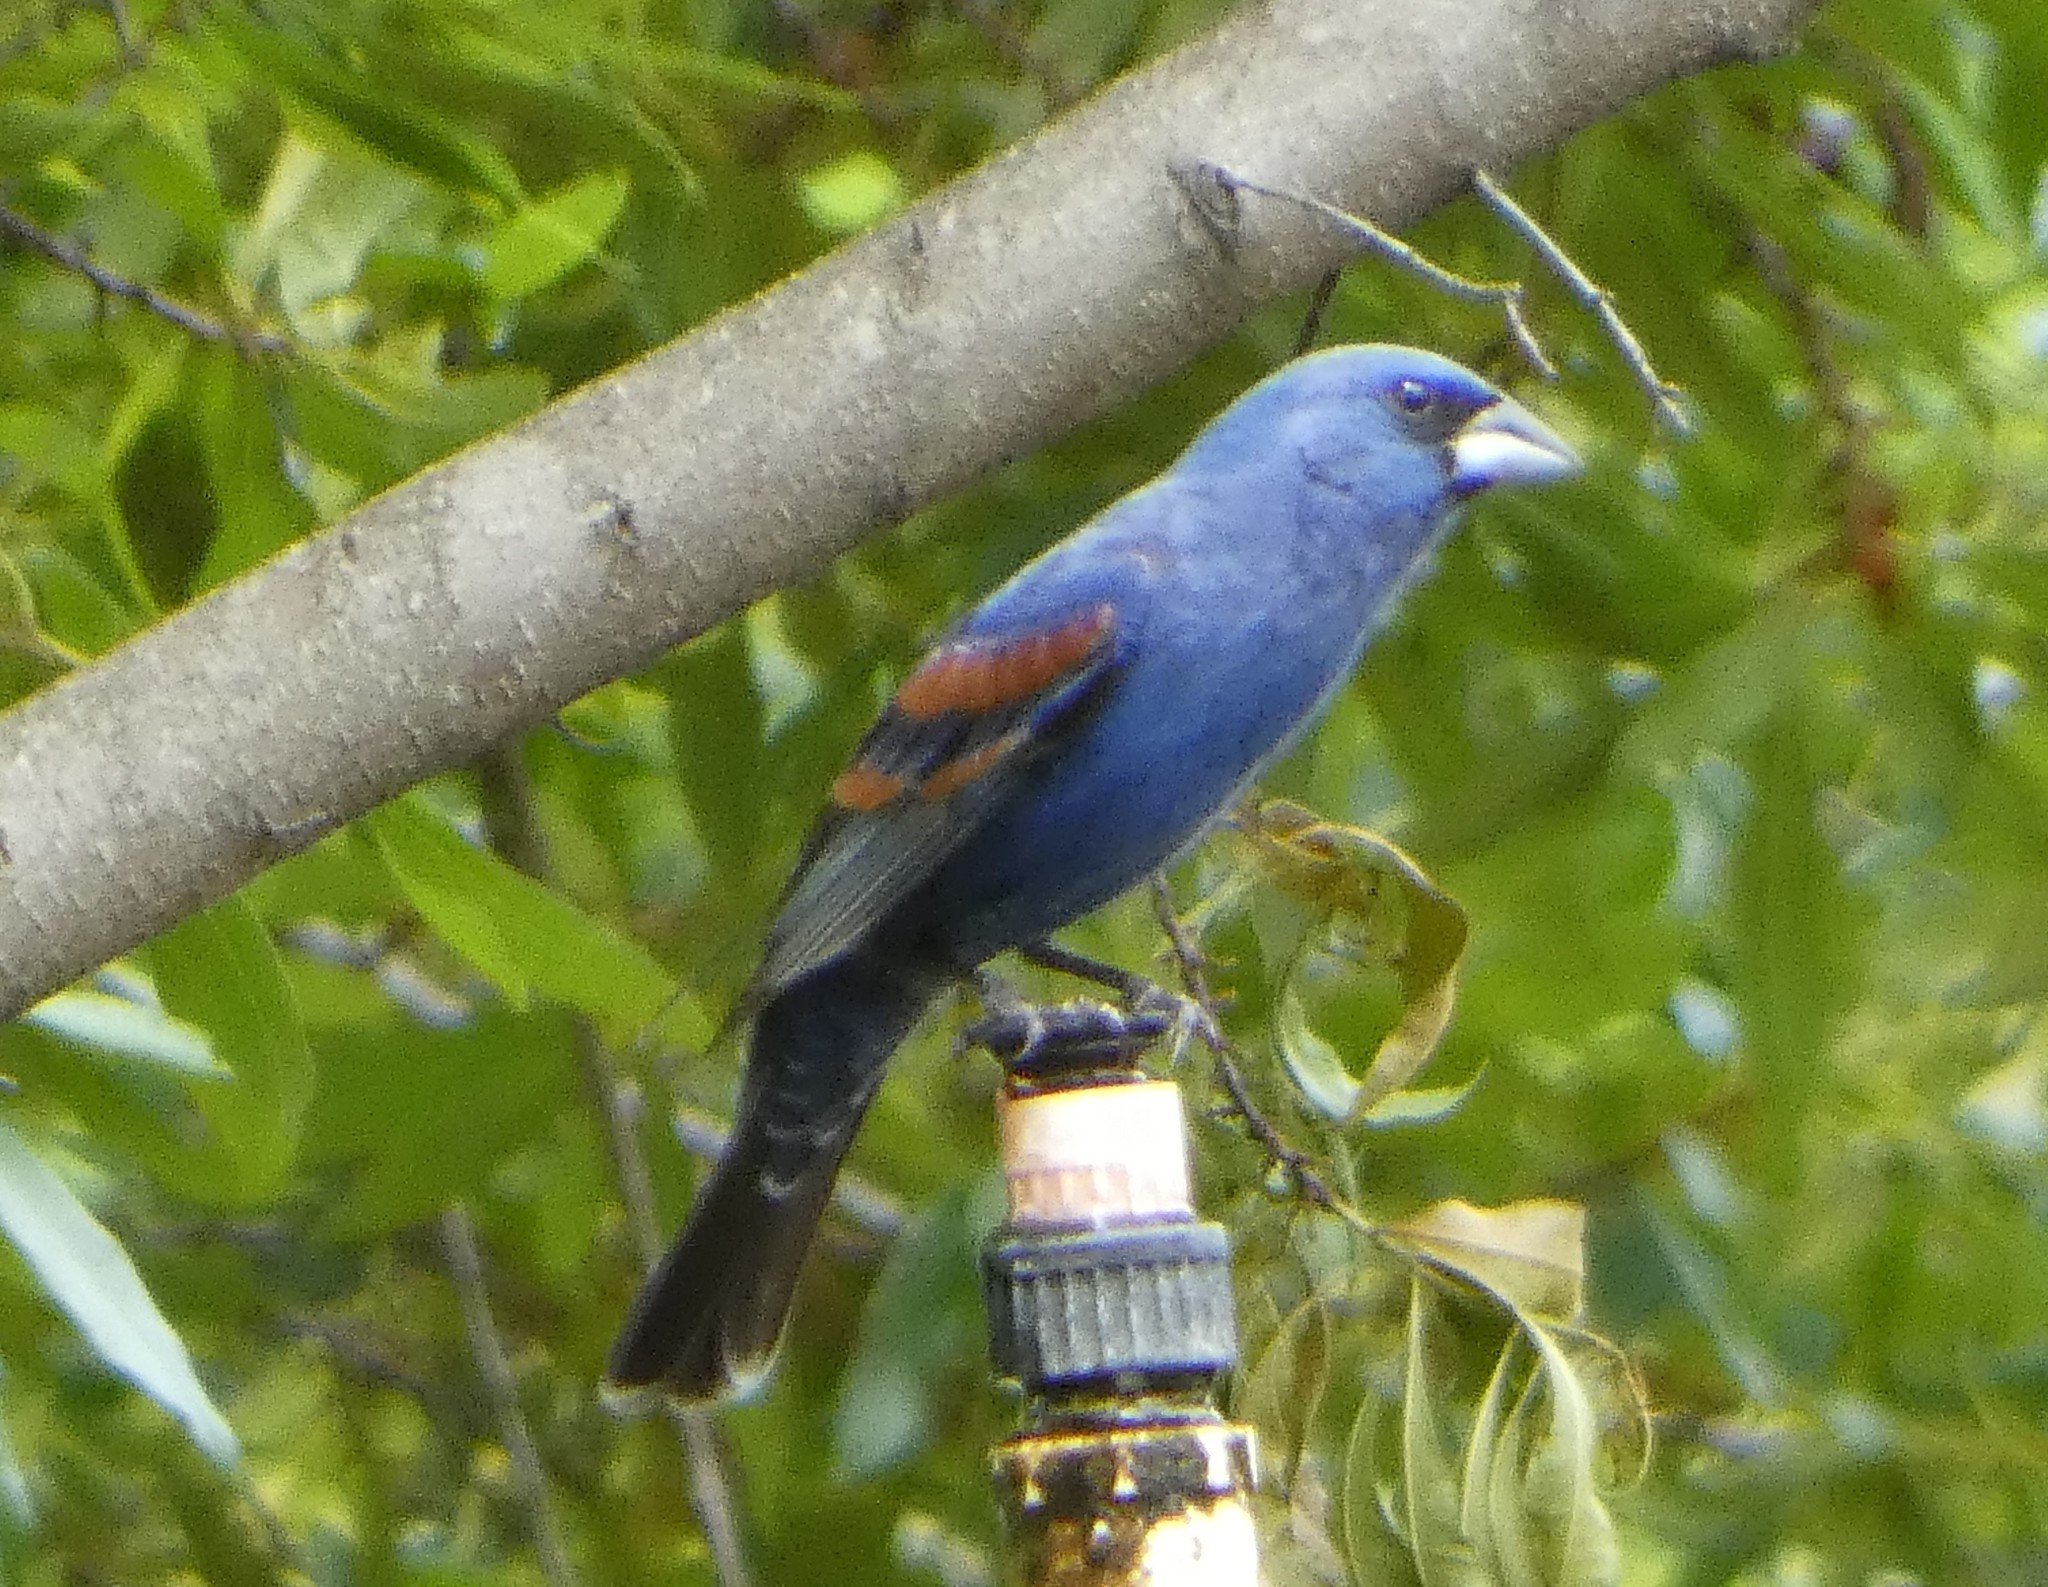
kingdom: Animalia
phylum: Chordata
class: Aves
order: Passeriformes
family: Cardinalidae
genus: Passerina
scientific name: Passerina caerulea
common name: Blue grosbeak
